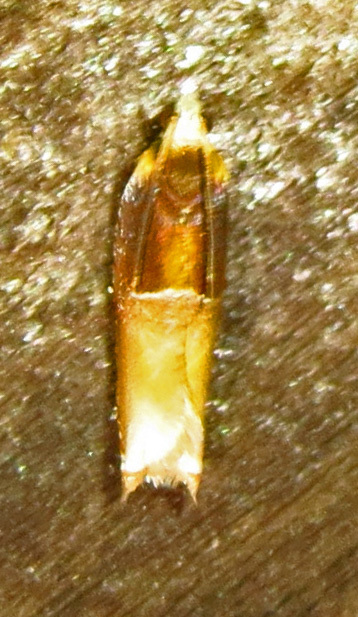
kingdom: Animalia
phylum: Arthropoda
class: Insecta
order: Lepidoptera
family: Tortricidae
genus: Ancylis
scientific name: Ancylis divisana
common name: Two-toned ancylis moth
